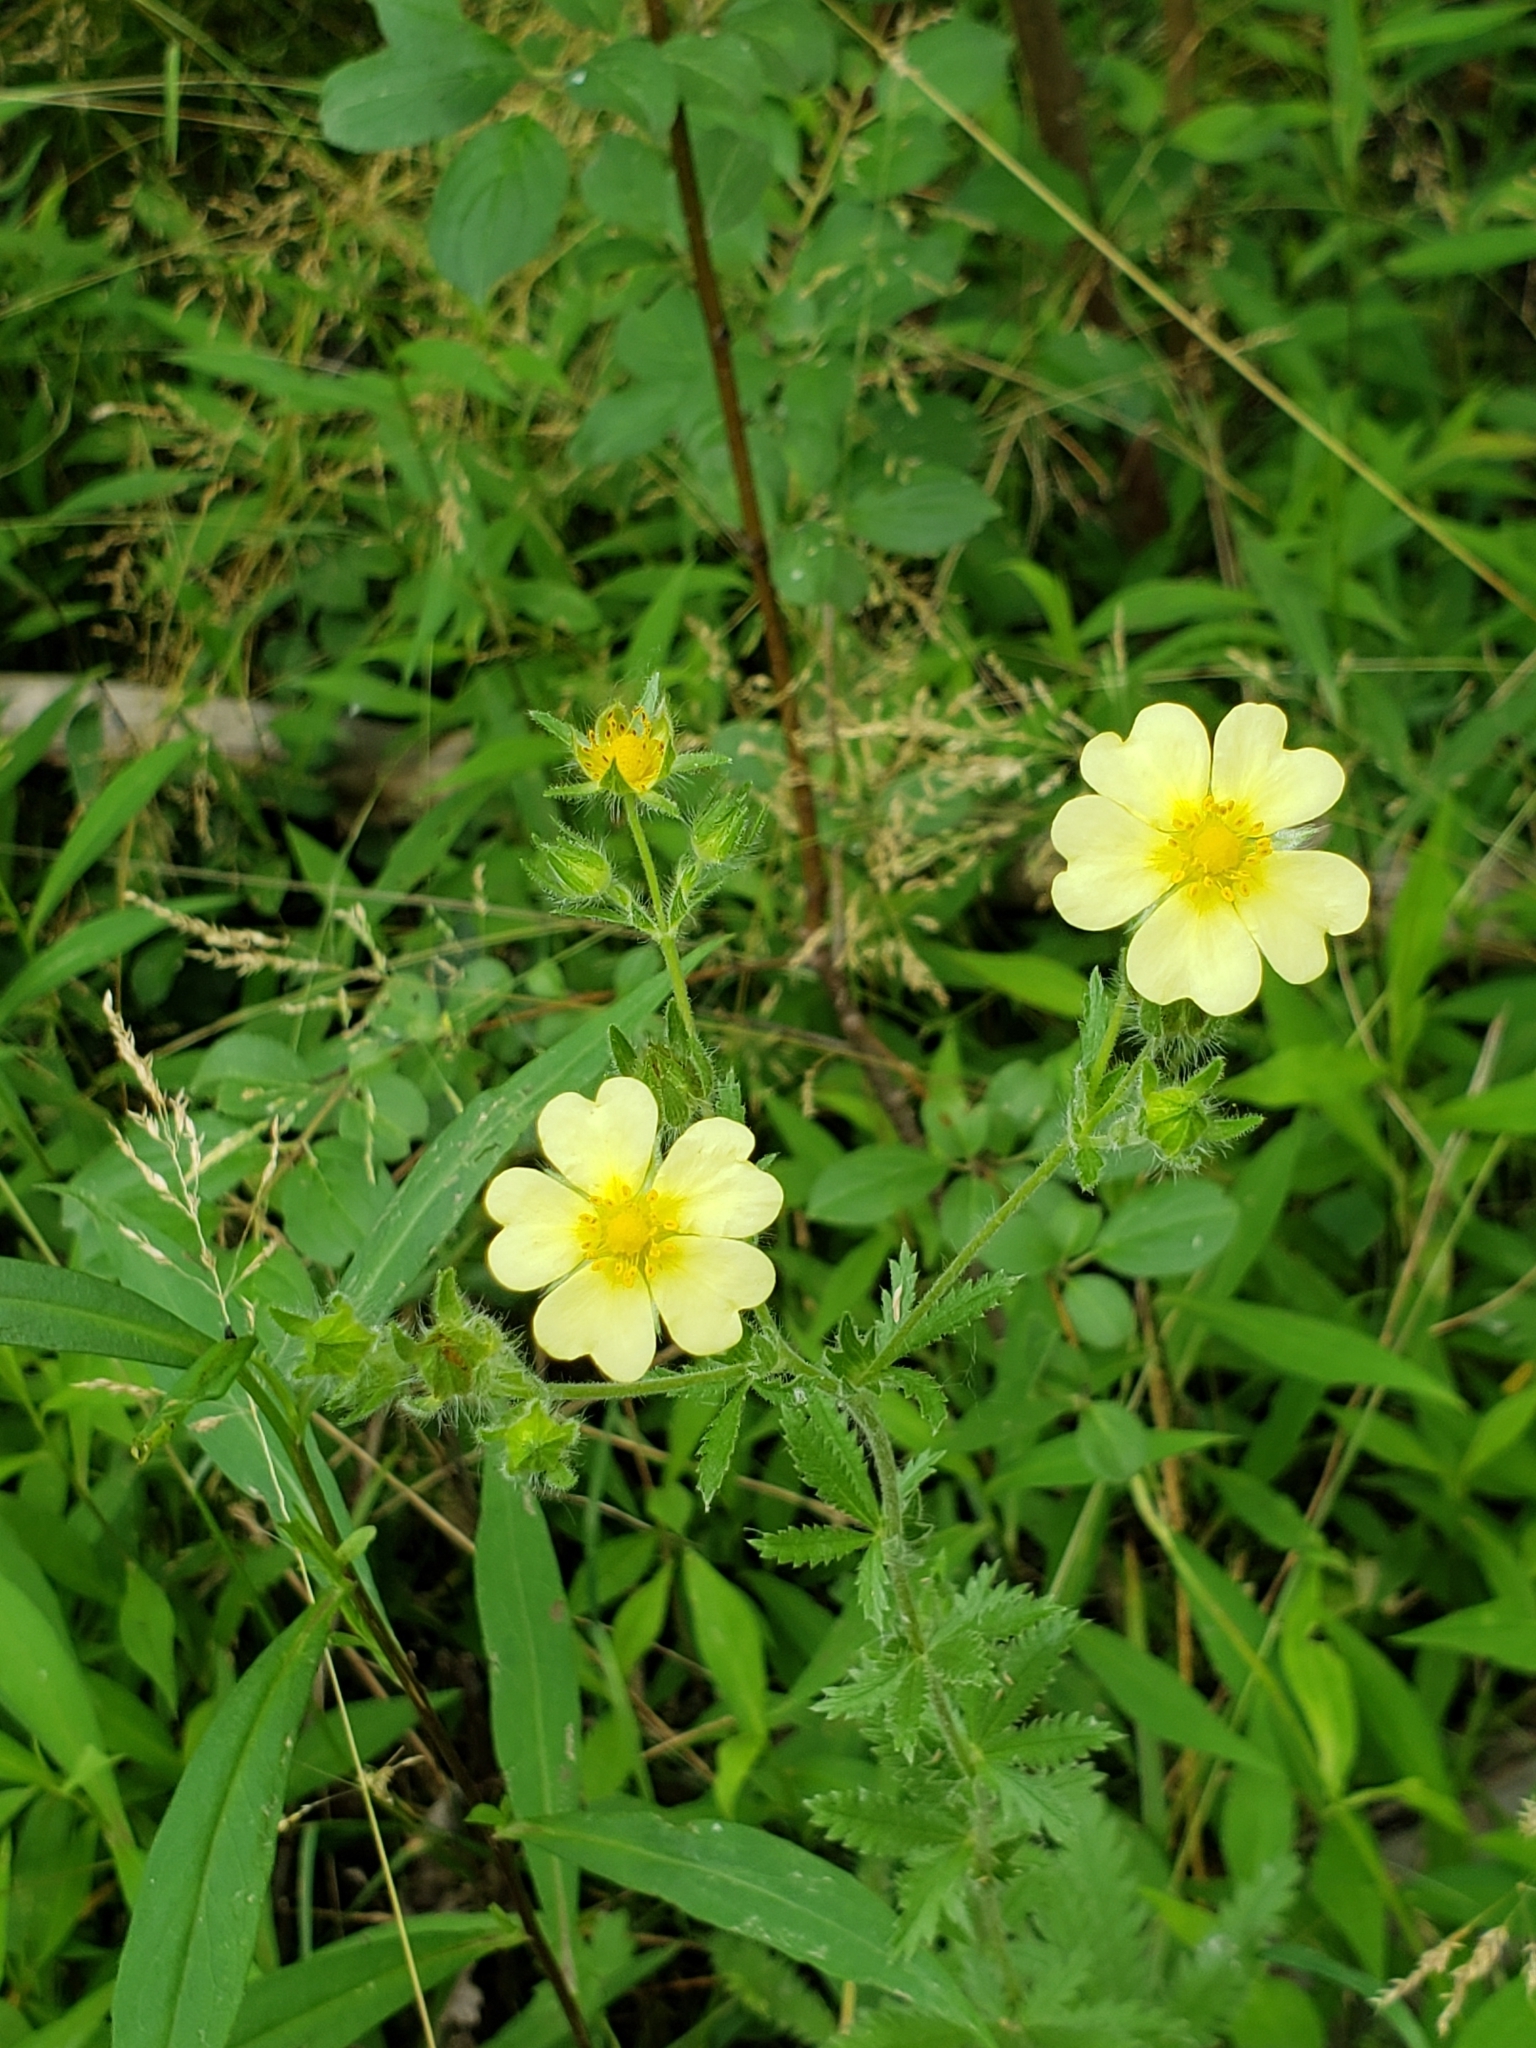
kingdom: Plantae
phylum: Tracheophyta
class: Magnoliopsida
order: Rosales
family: Rosaceae
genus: Potentilla
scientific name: Potentilla recta
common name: Sulphur cinquefoil
